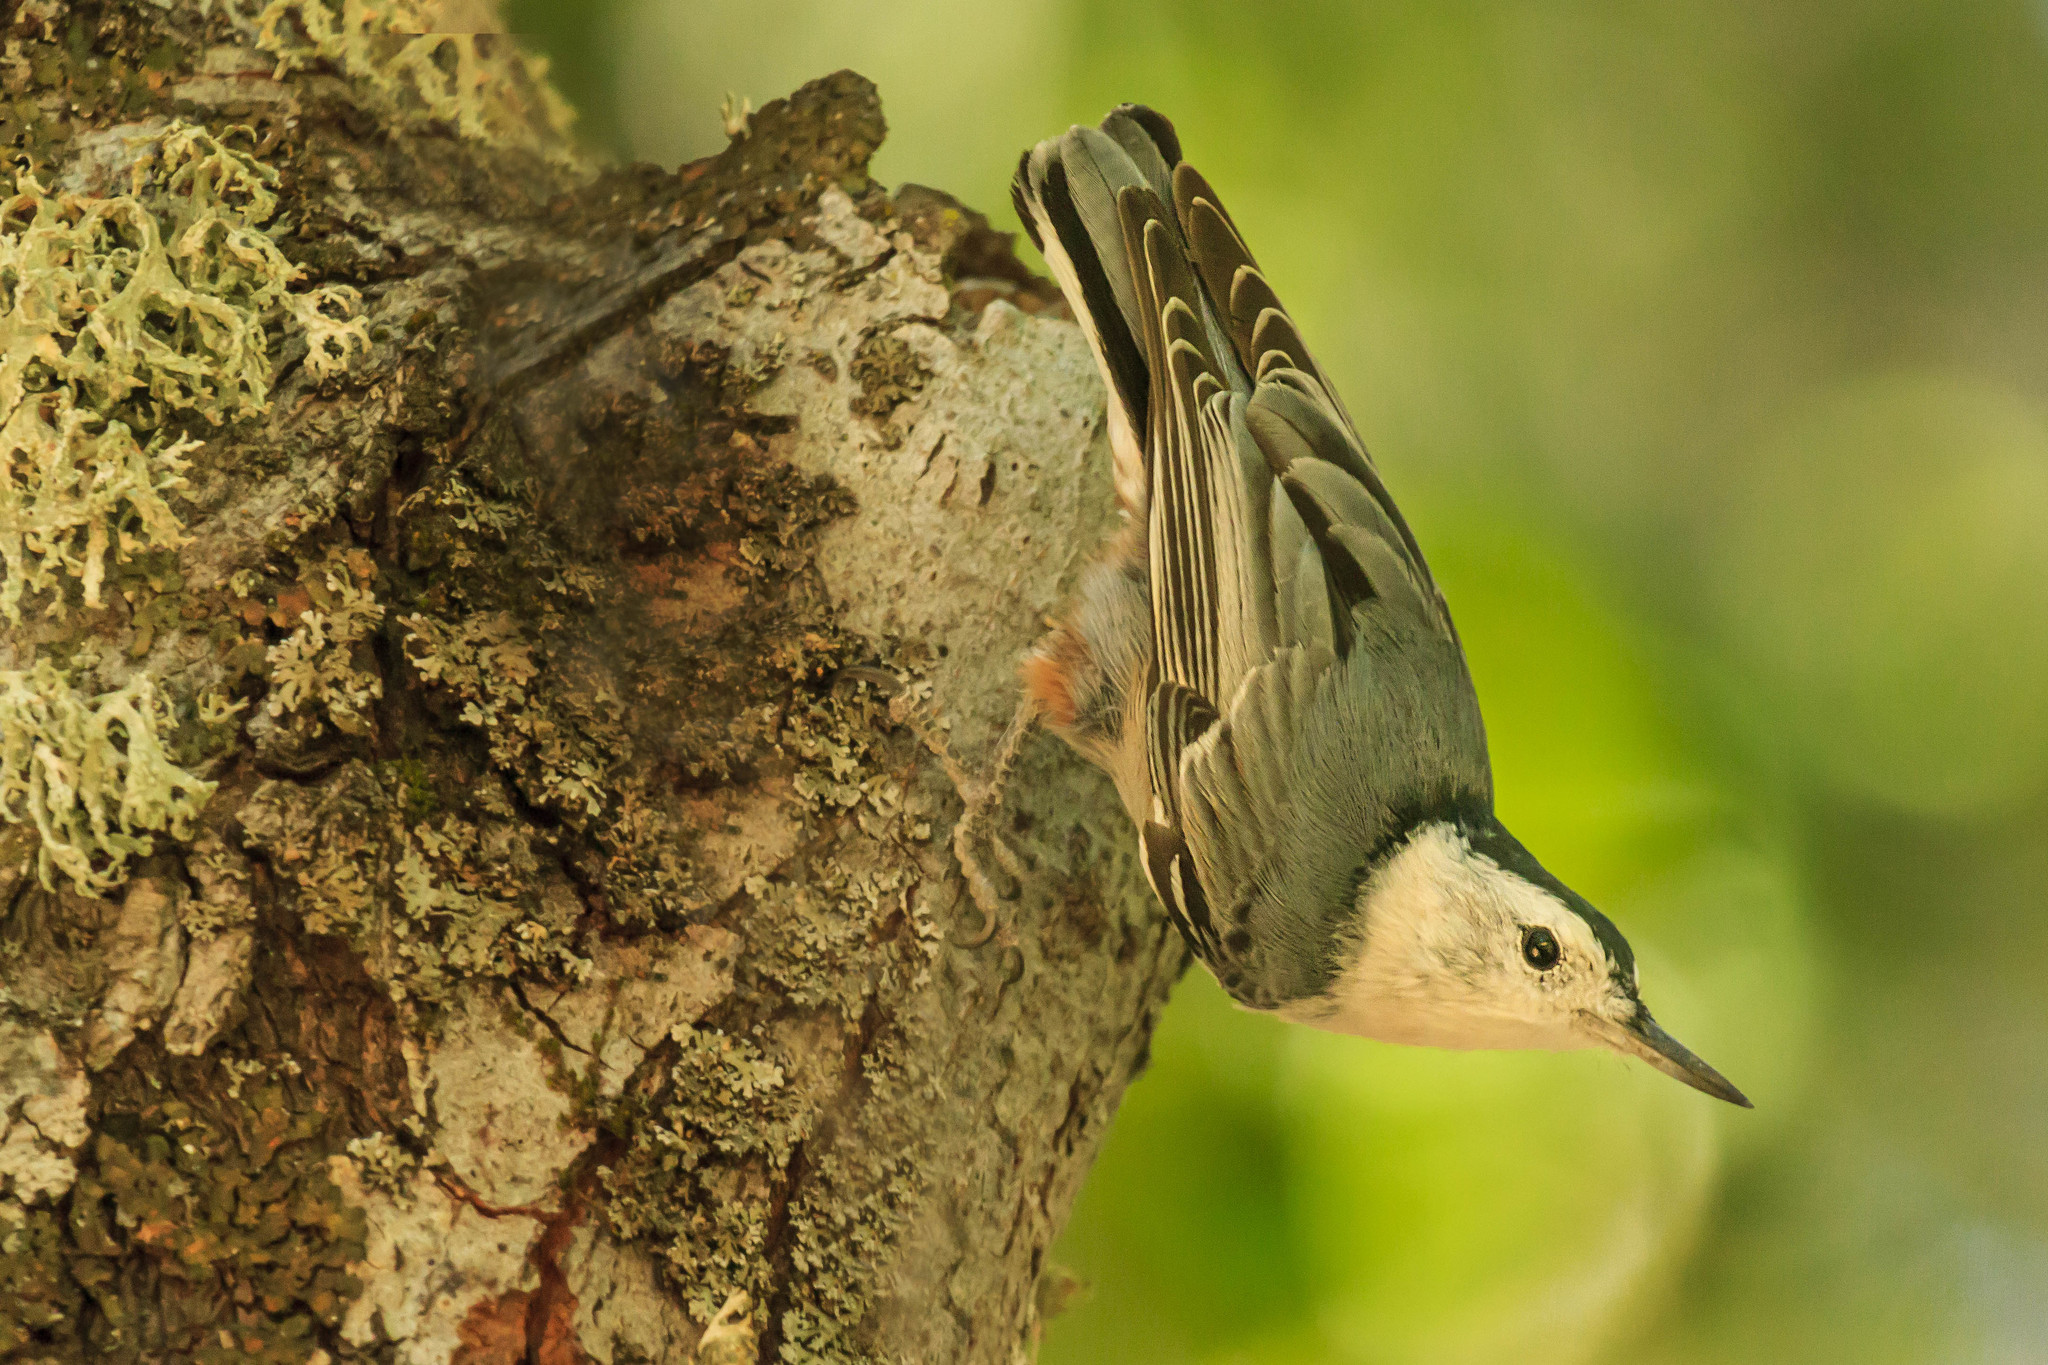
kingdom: Animalia
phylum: Chordata
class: Aves
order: Passeriformes
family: Sittidae
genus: Sitta
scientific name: Sitta carolinensis
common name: White-breasted nuthatch
